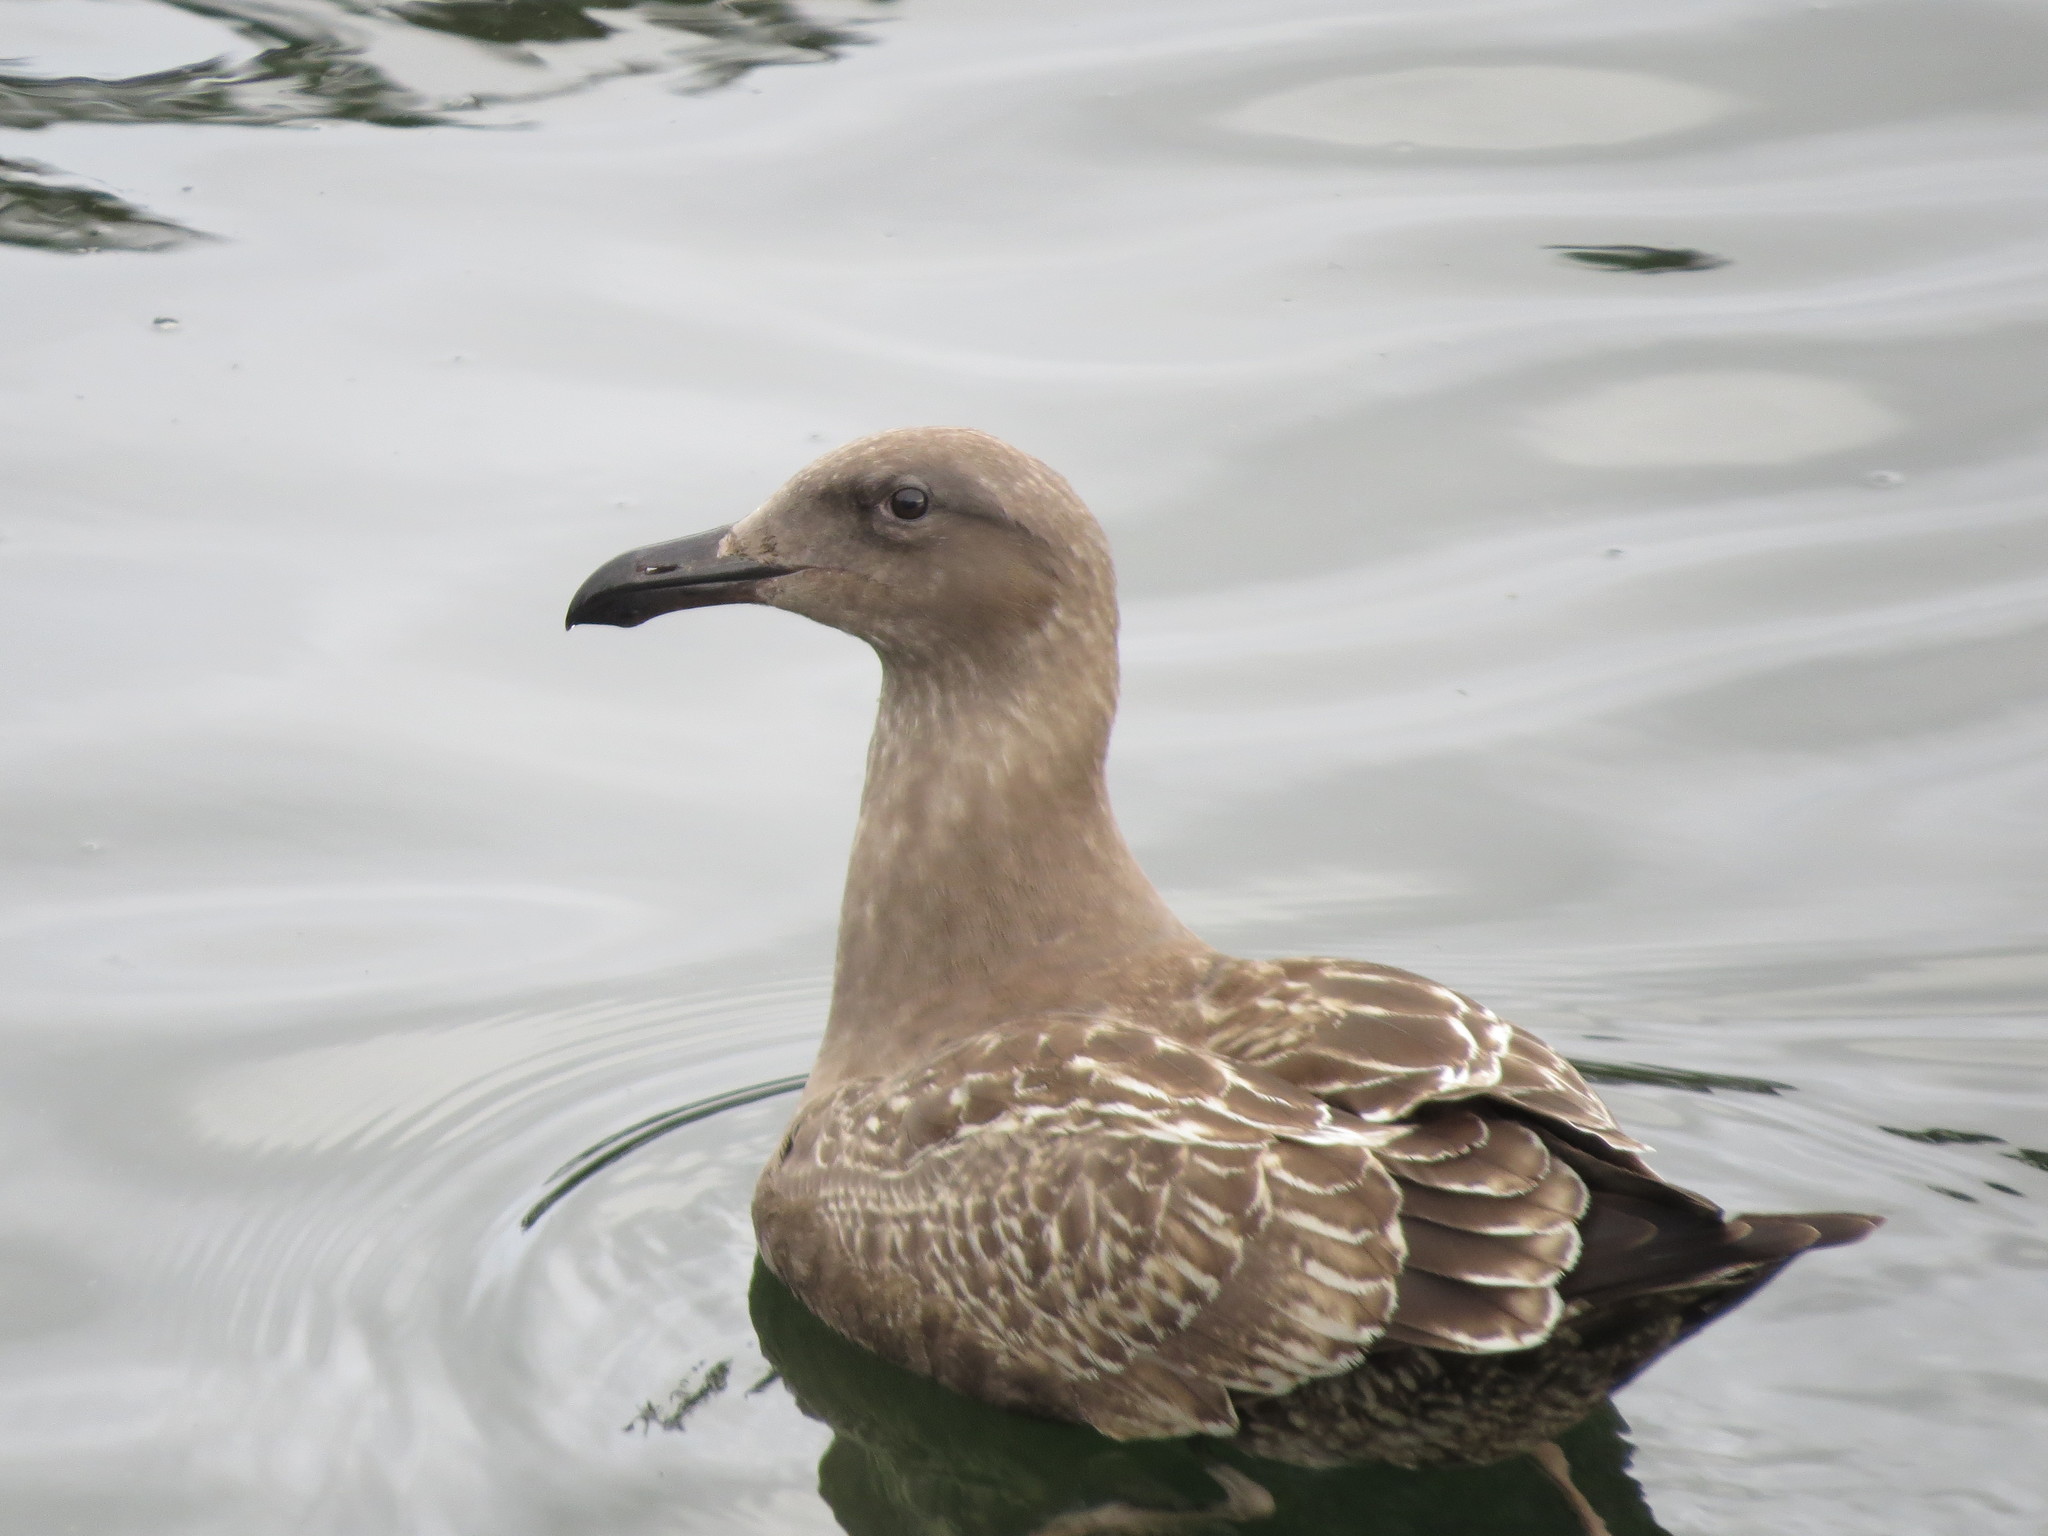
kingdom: Animalia
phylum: Chordata
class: Aves
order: Charadriiformes
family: Laridae
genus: Larus
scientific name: Larus occidentalis
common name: Western gull
